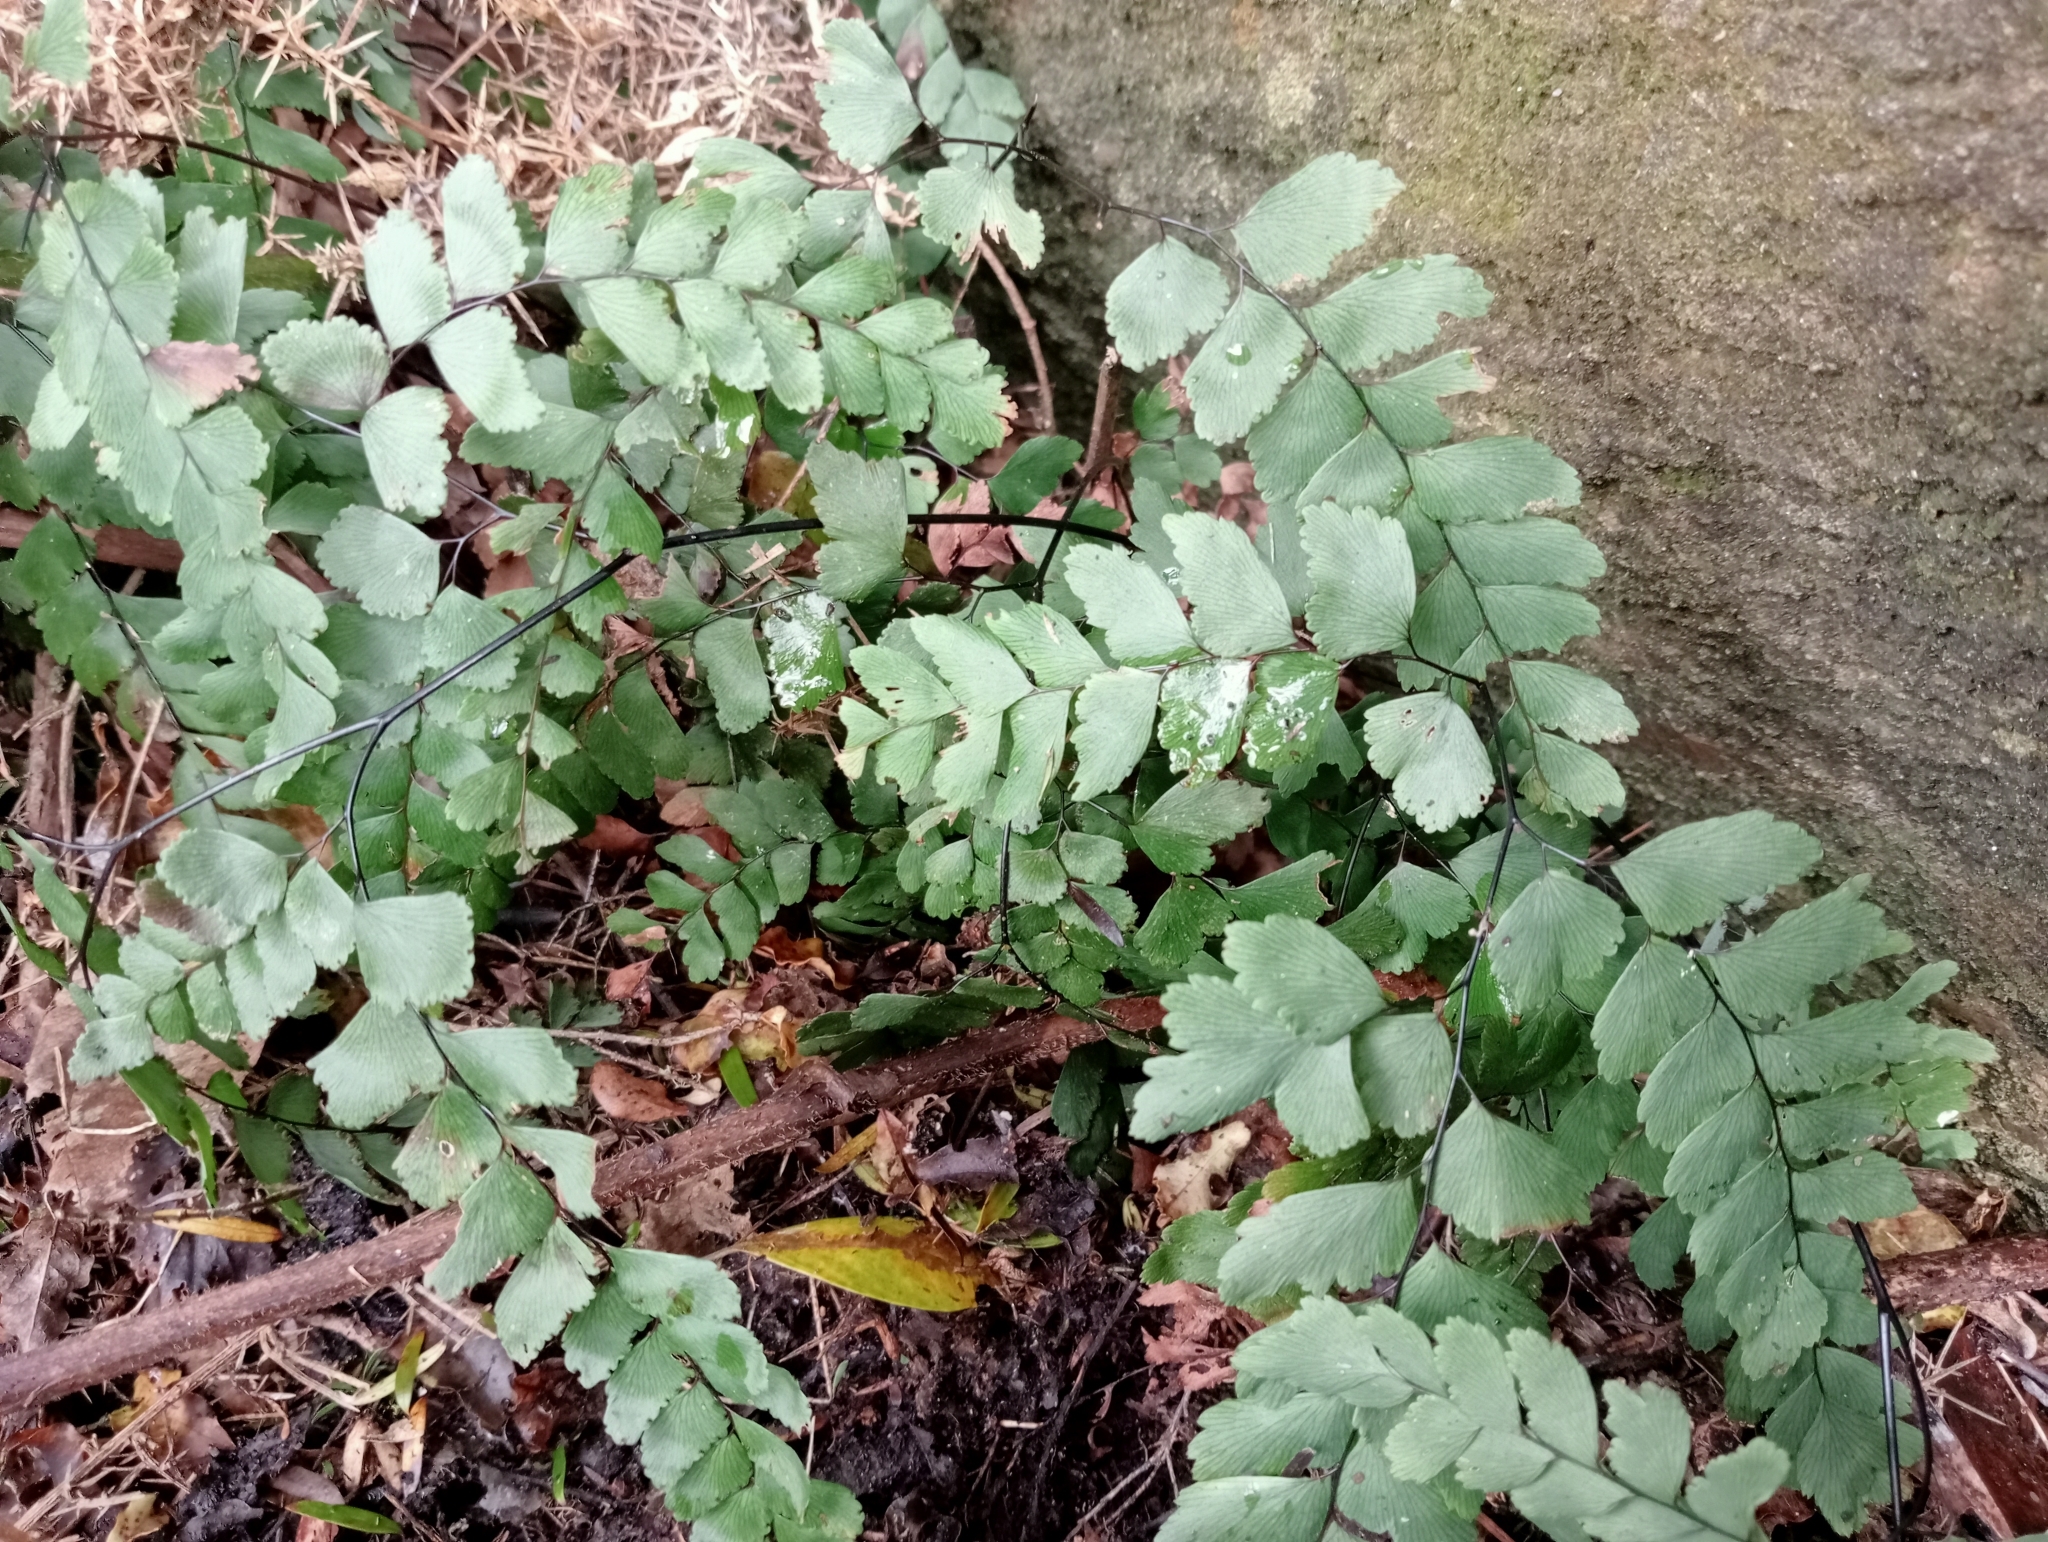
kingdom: Plantae
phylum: Tracheophyta
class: Polypodiopsida
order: Polypodiales
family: Pteridaceae
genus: Adiantum
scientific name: Adiantum cunninghamii
